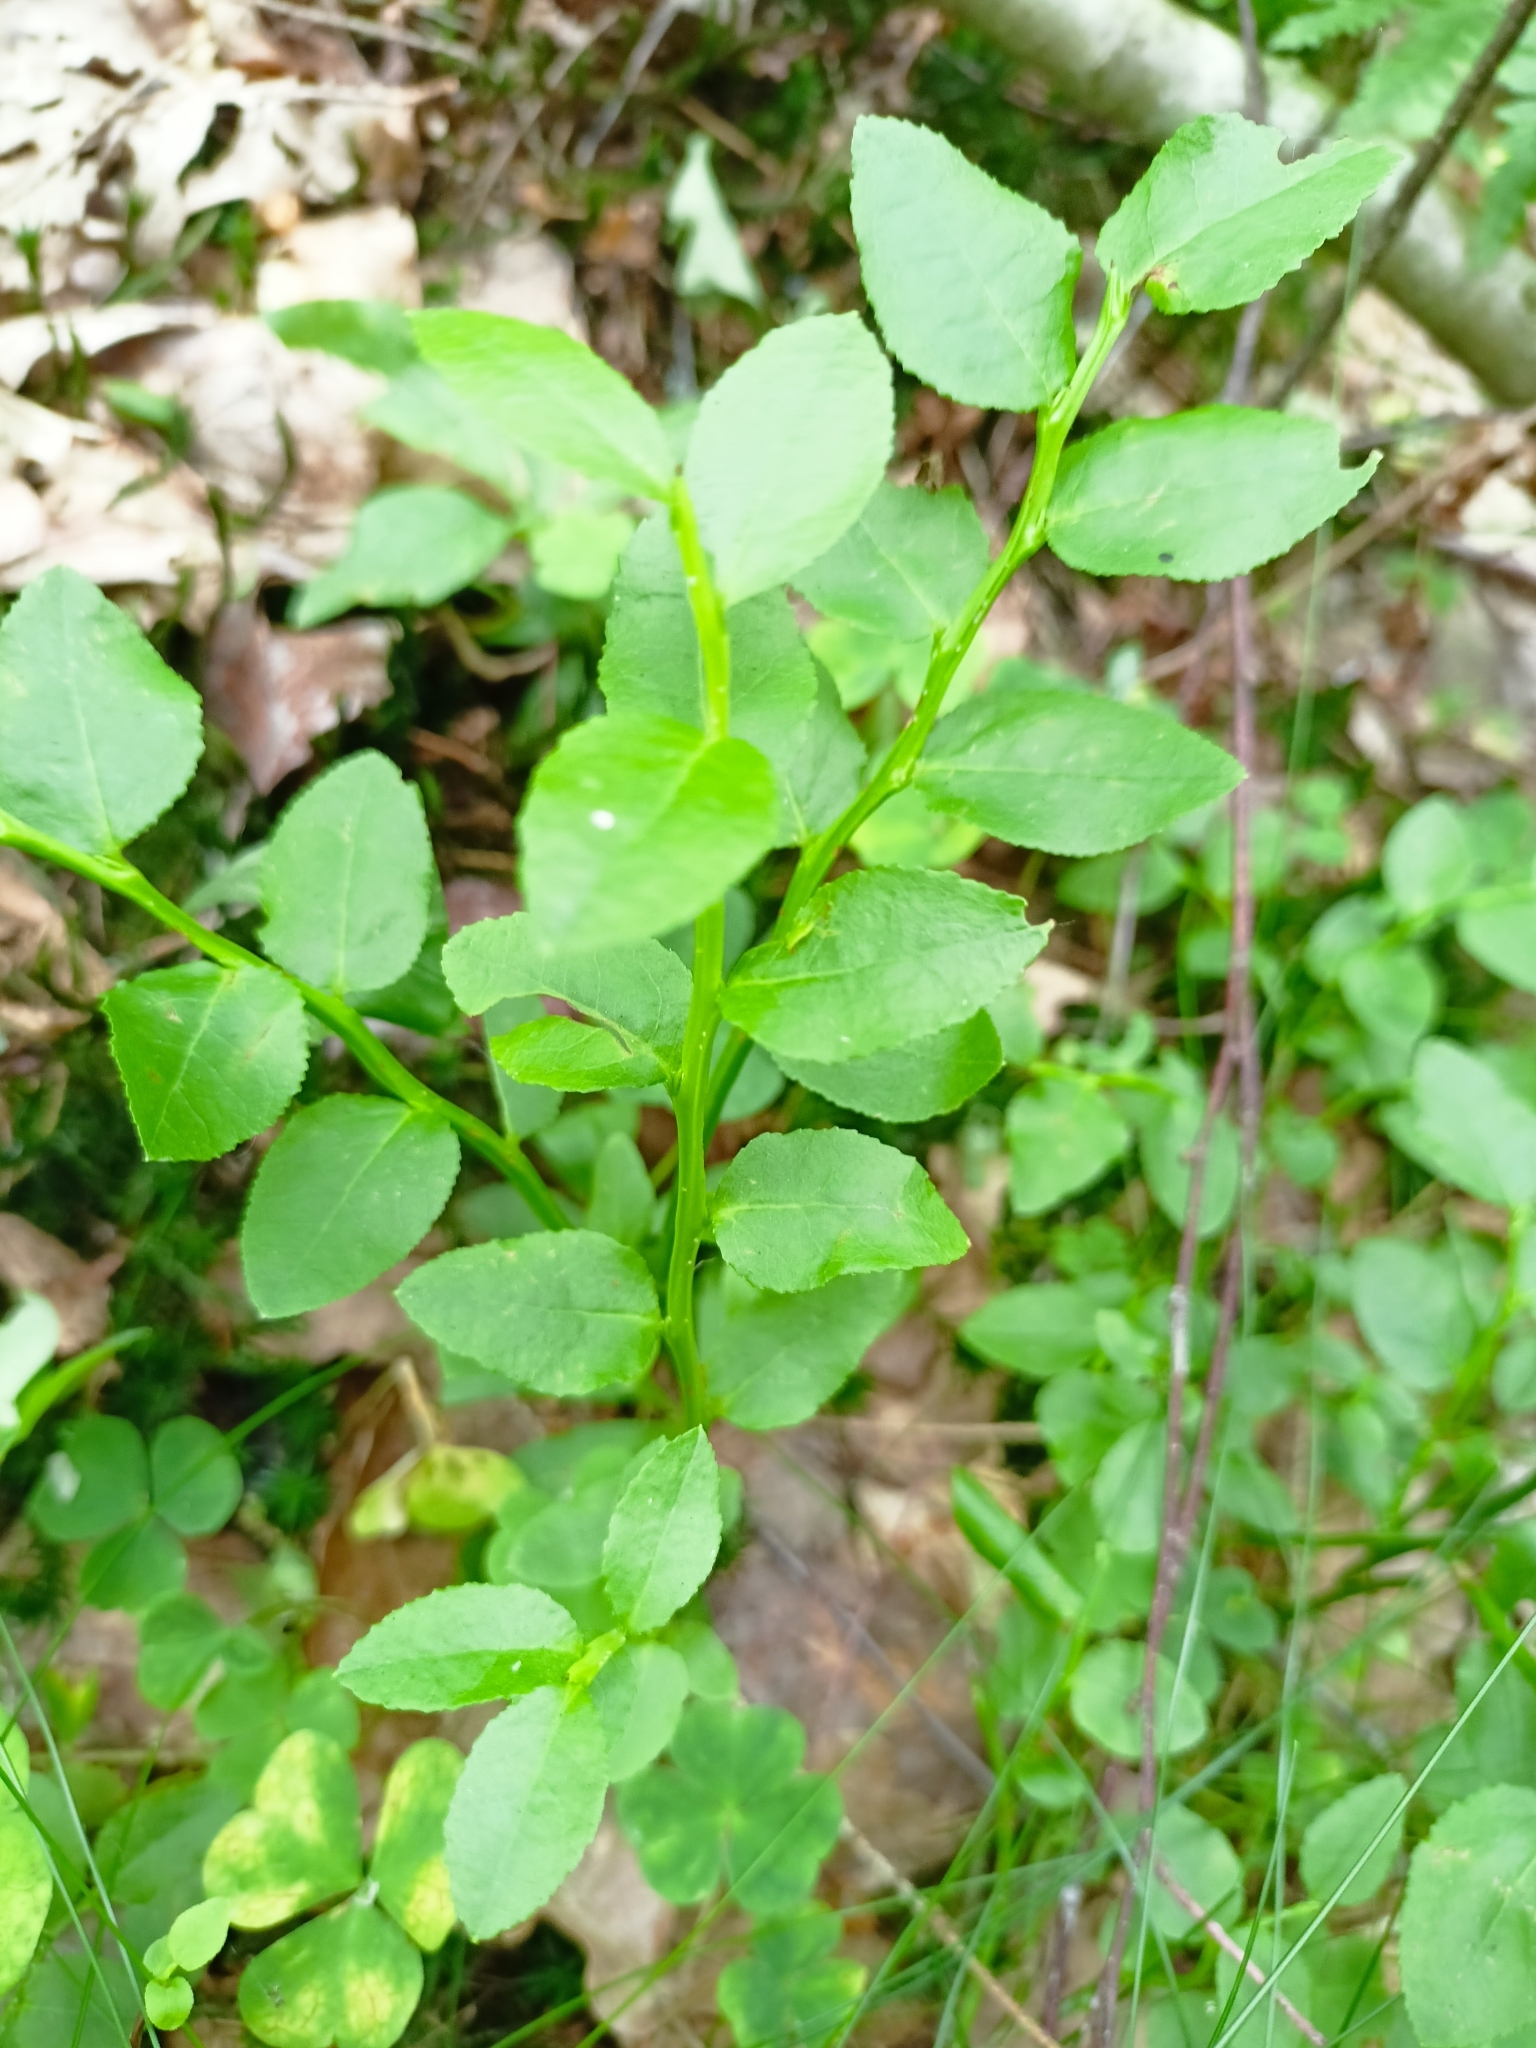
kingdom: Plantae
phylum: Tracheophyta
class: Magnoliopsida
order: Ericales
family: Ericaceae
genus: Vaccinium
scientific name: Vaccinium myrtillus
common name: Bilberry
